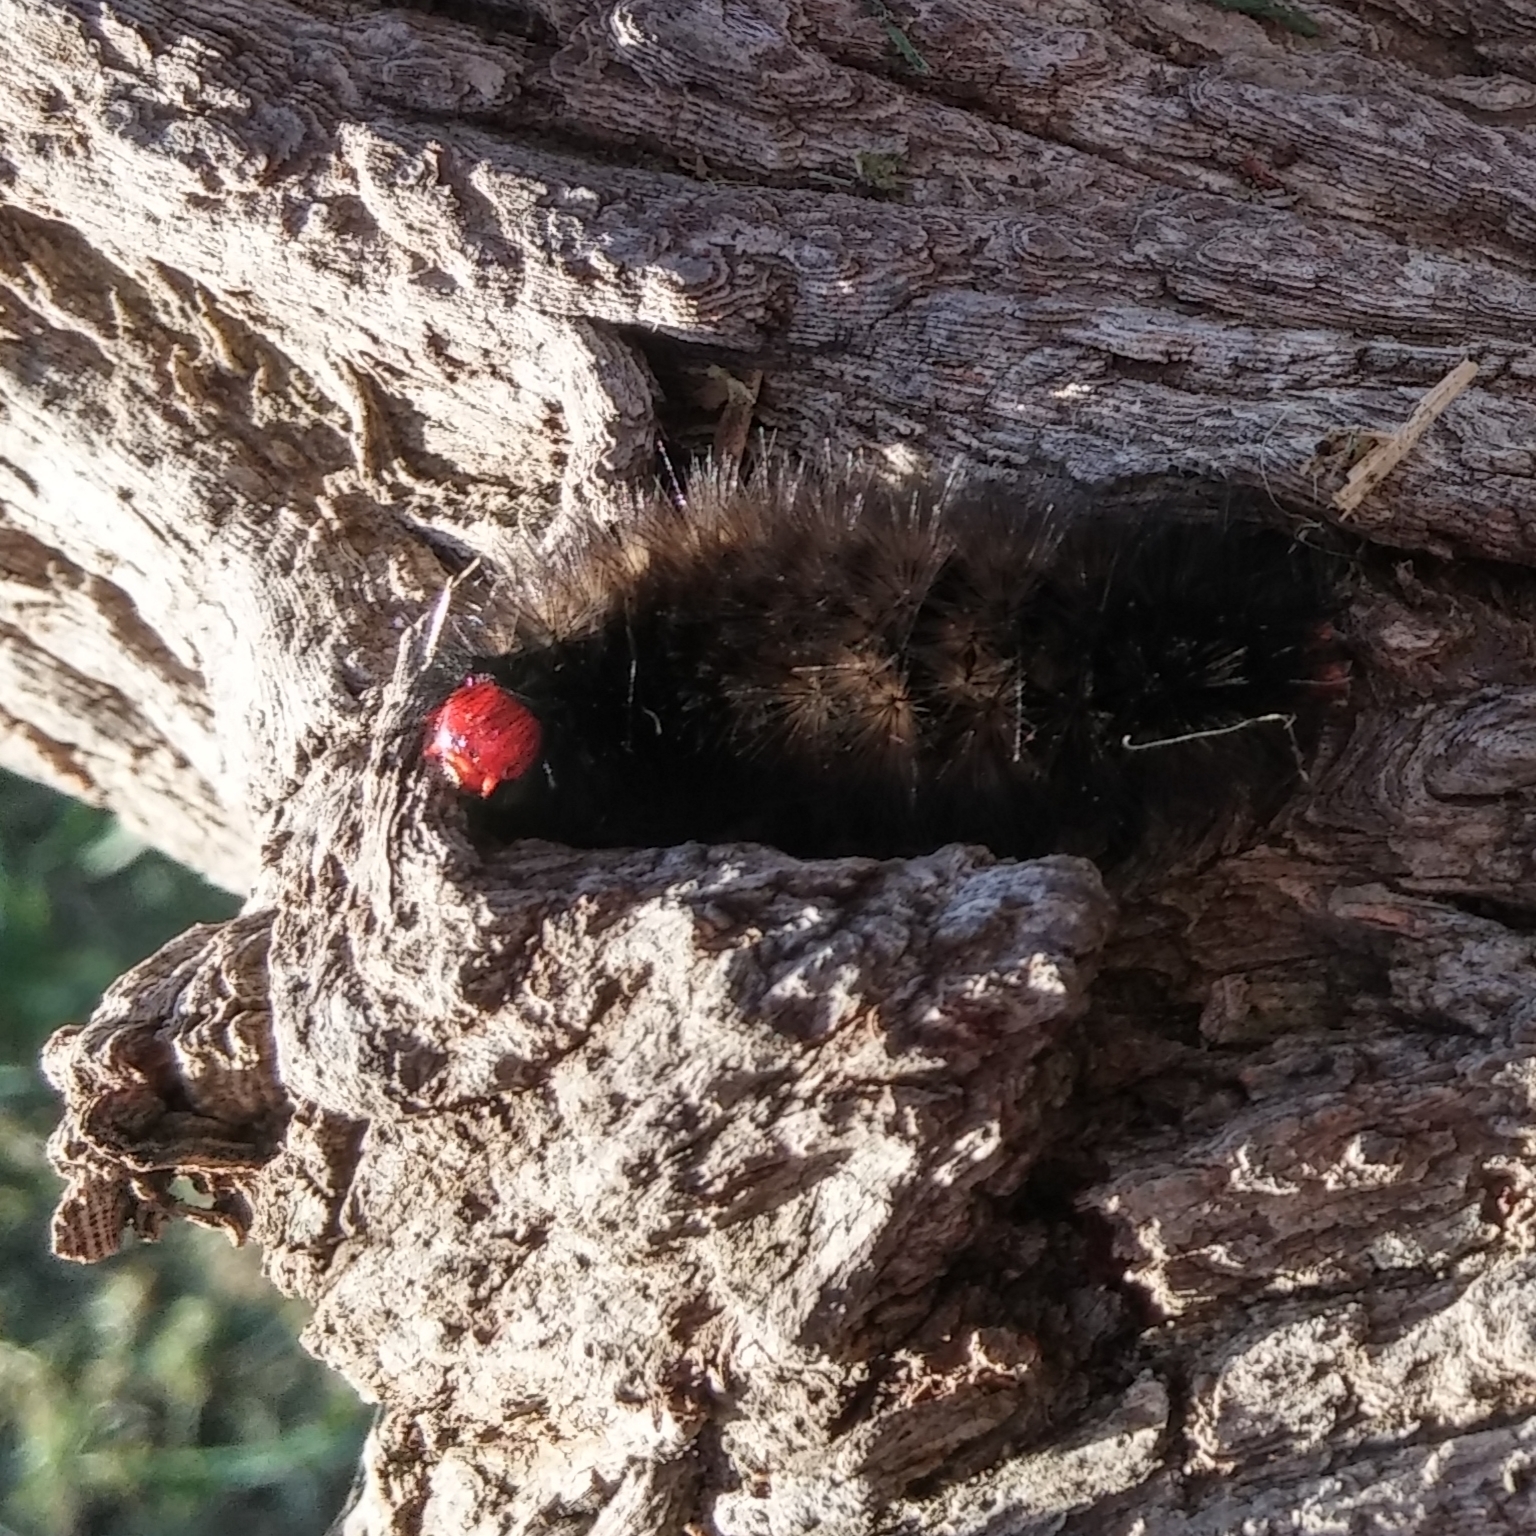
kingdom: Animalia
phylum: Arthropoda
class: Insecta
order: Lepidoptera
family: Erebidae
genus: Ardices
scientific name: Ardices glatignyi
